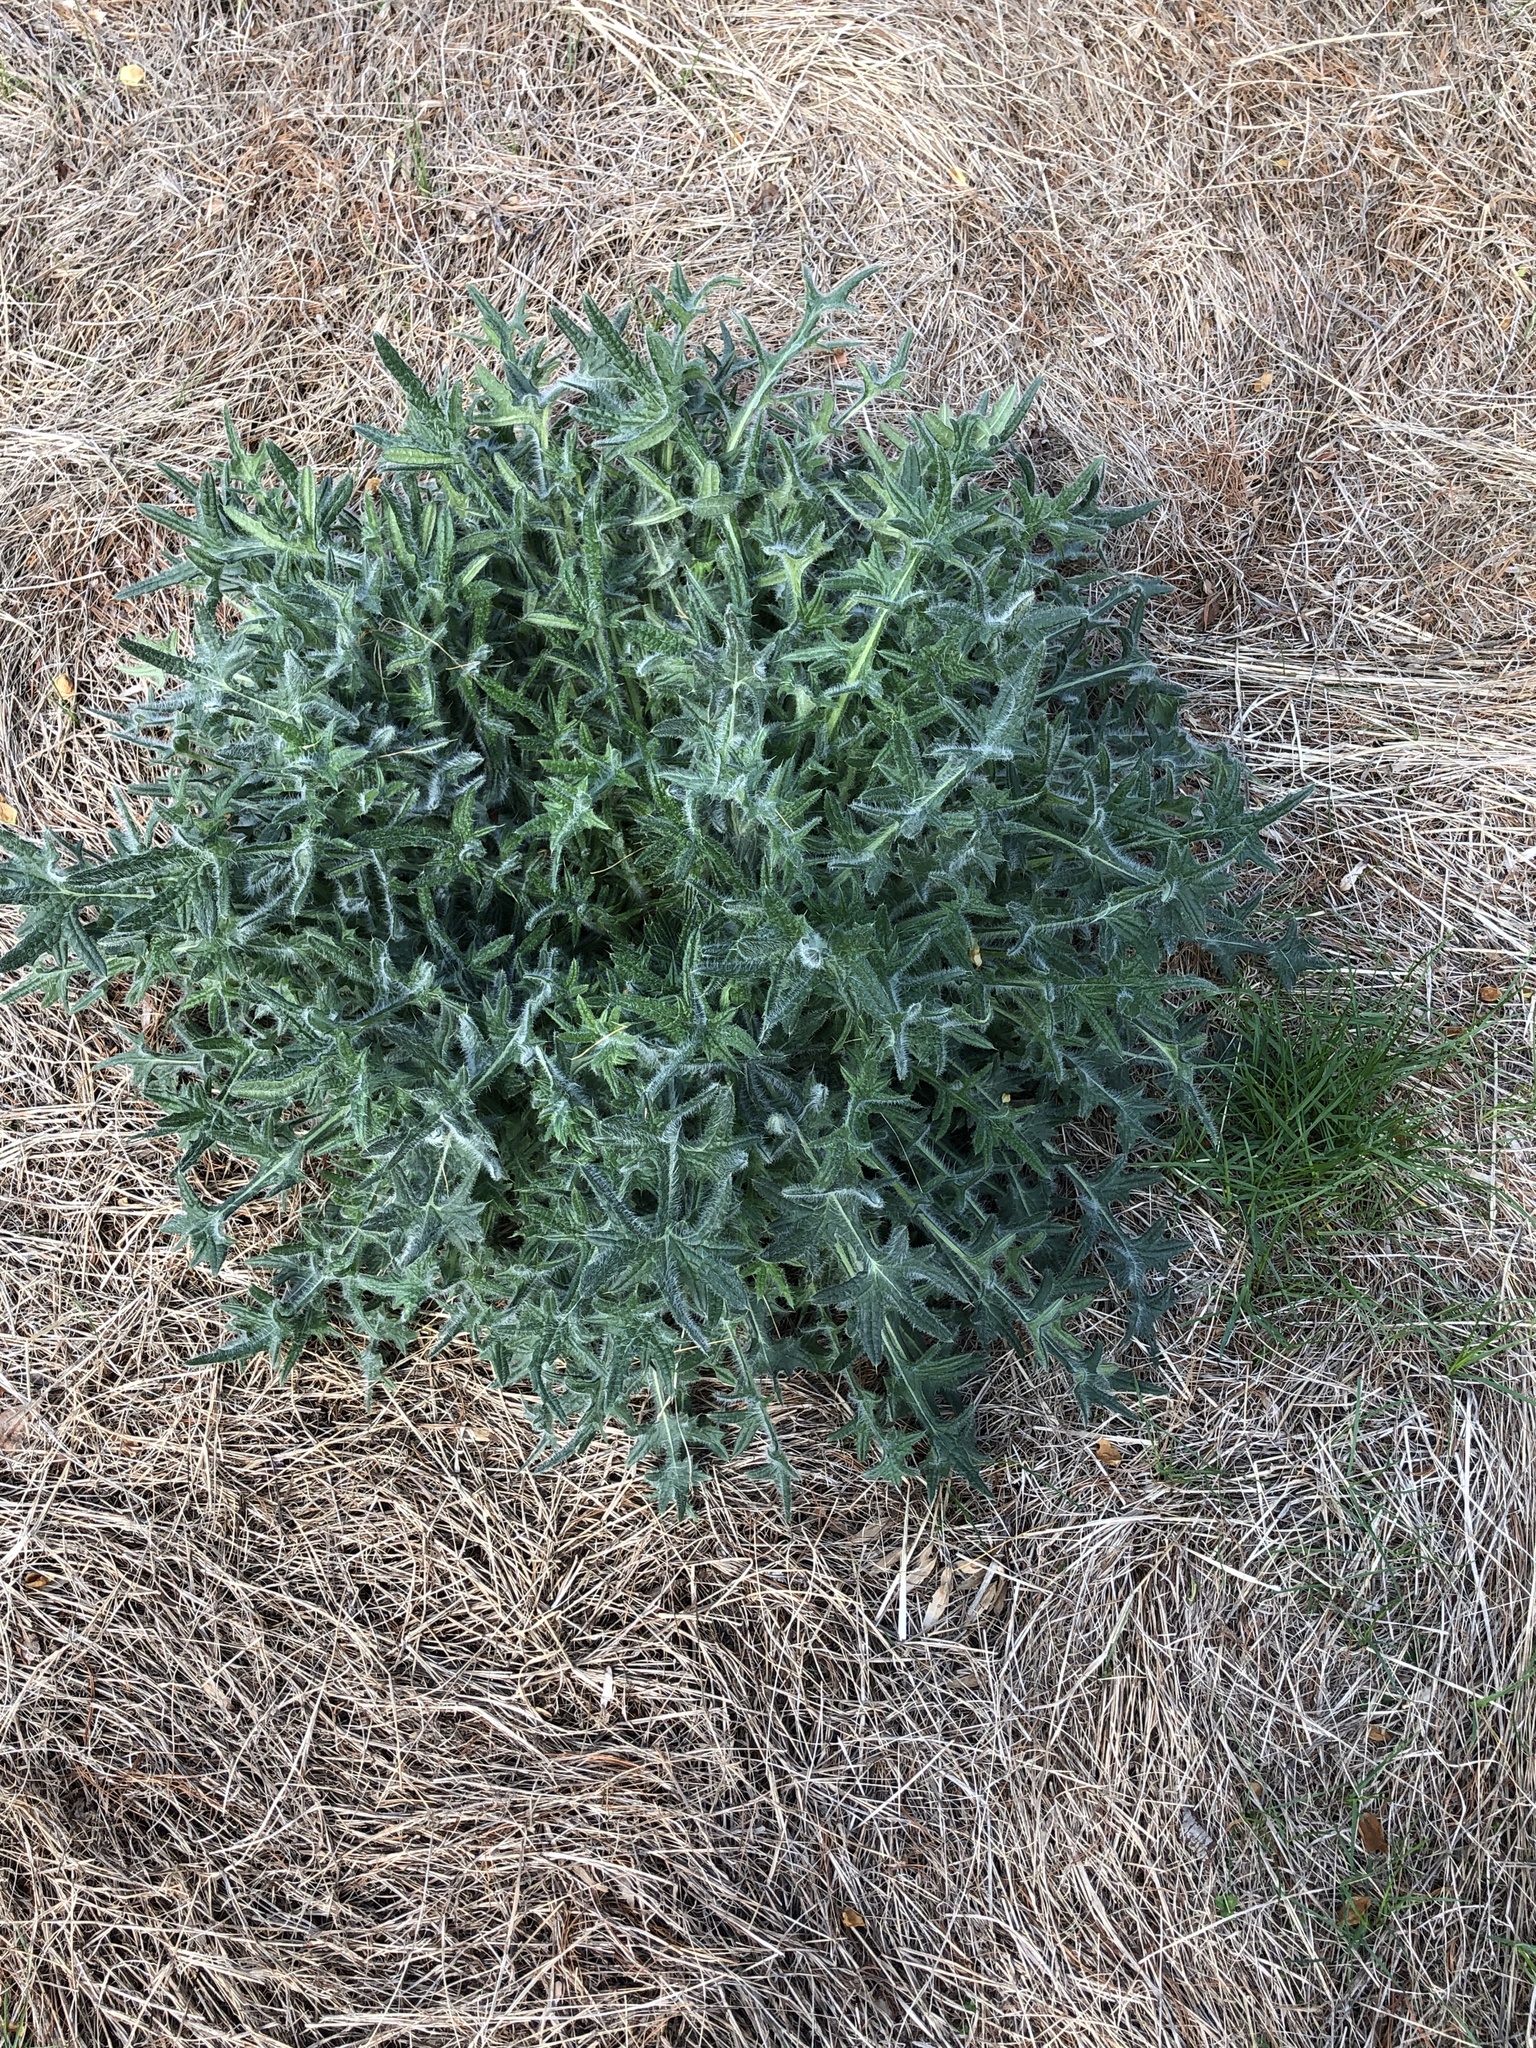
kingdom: Plantae
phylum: Tracheophyta
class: Magnoliopsida
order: Asterales
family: Asteraceae
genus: Cirsium
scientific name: Cirsium vulgare
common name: Bull thistle
